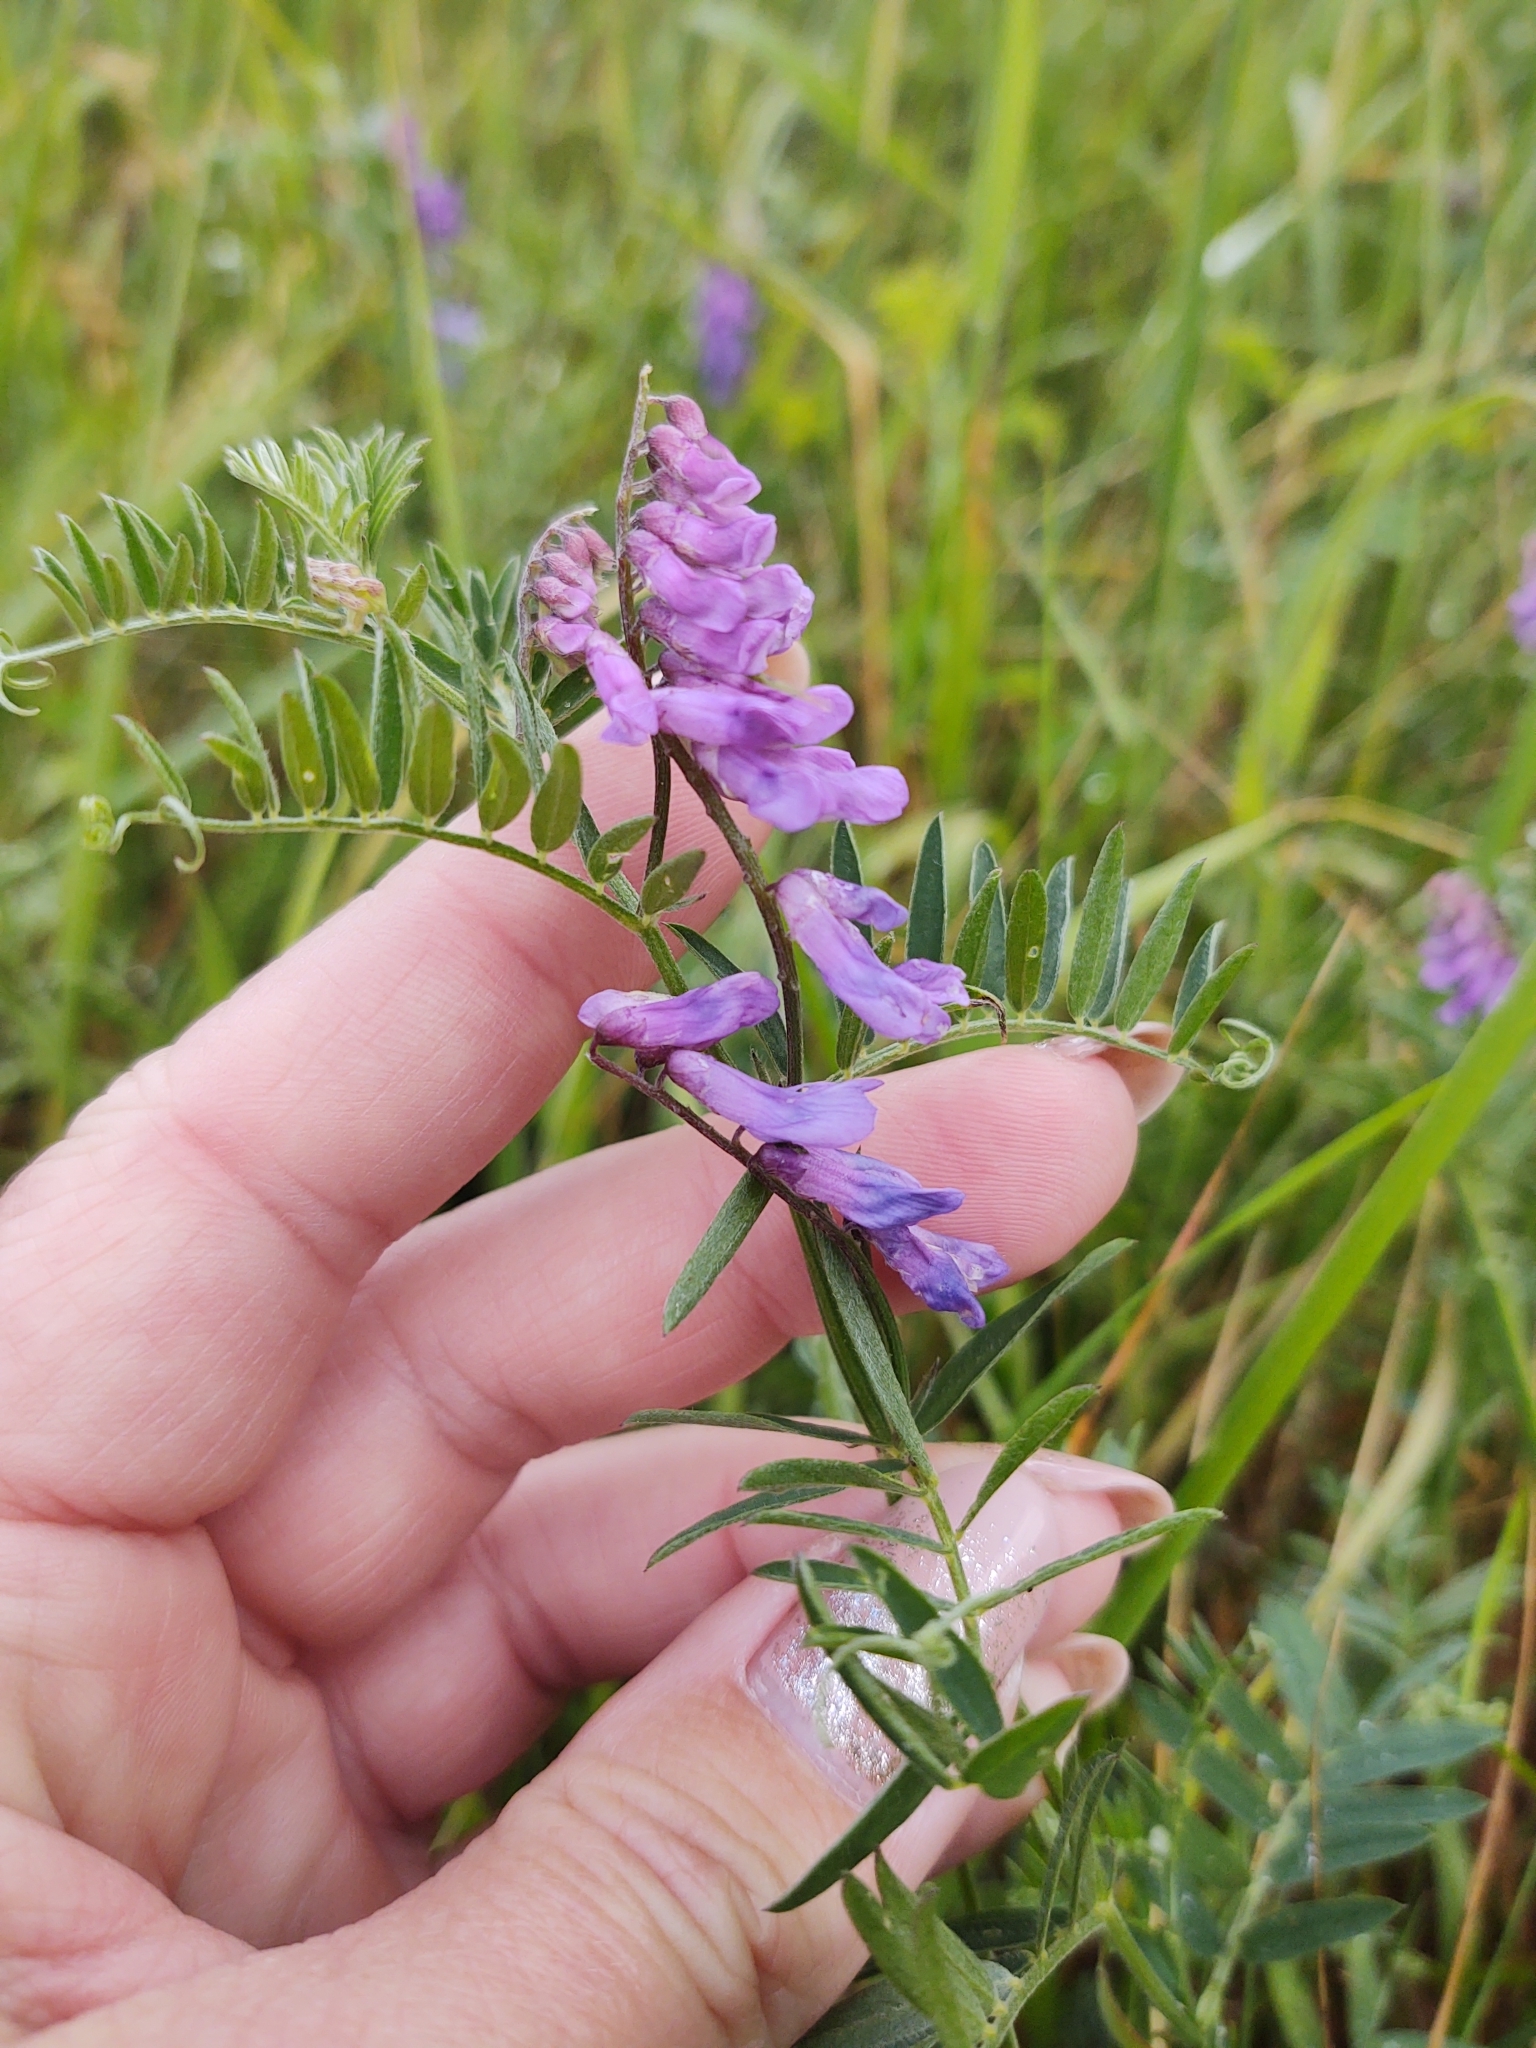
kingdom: Plantae
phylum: Tracheophyta
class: Magnoliopsida
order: Fabales
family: Fabaceae
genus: Vicia
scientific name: Vicia cracca
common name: Bird vetch
